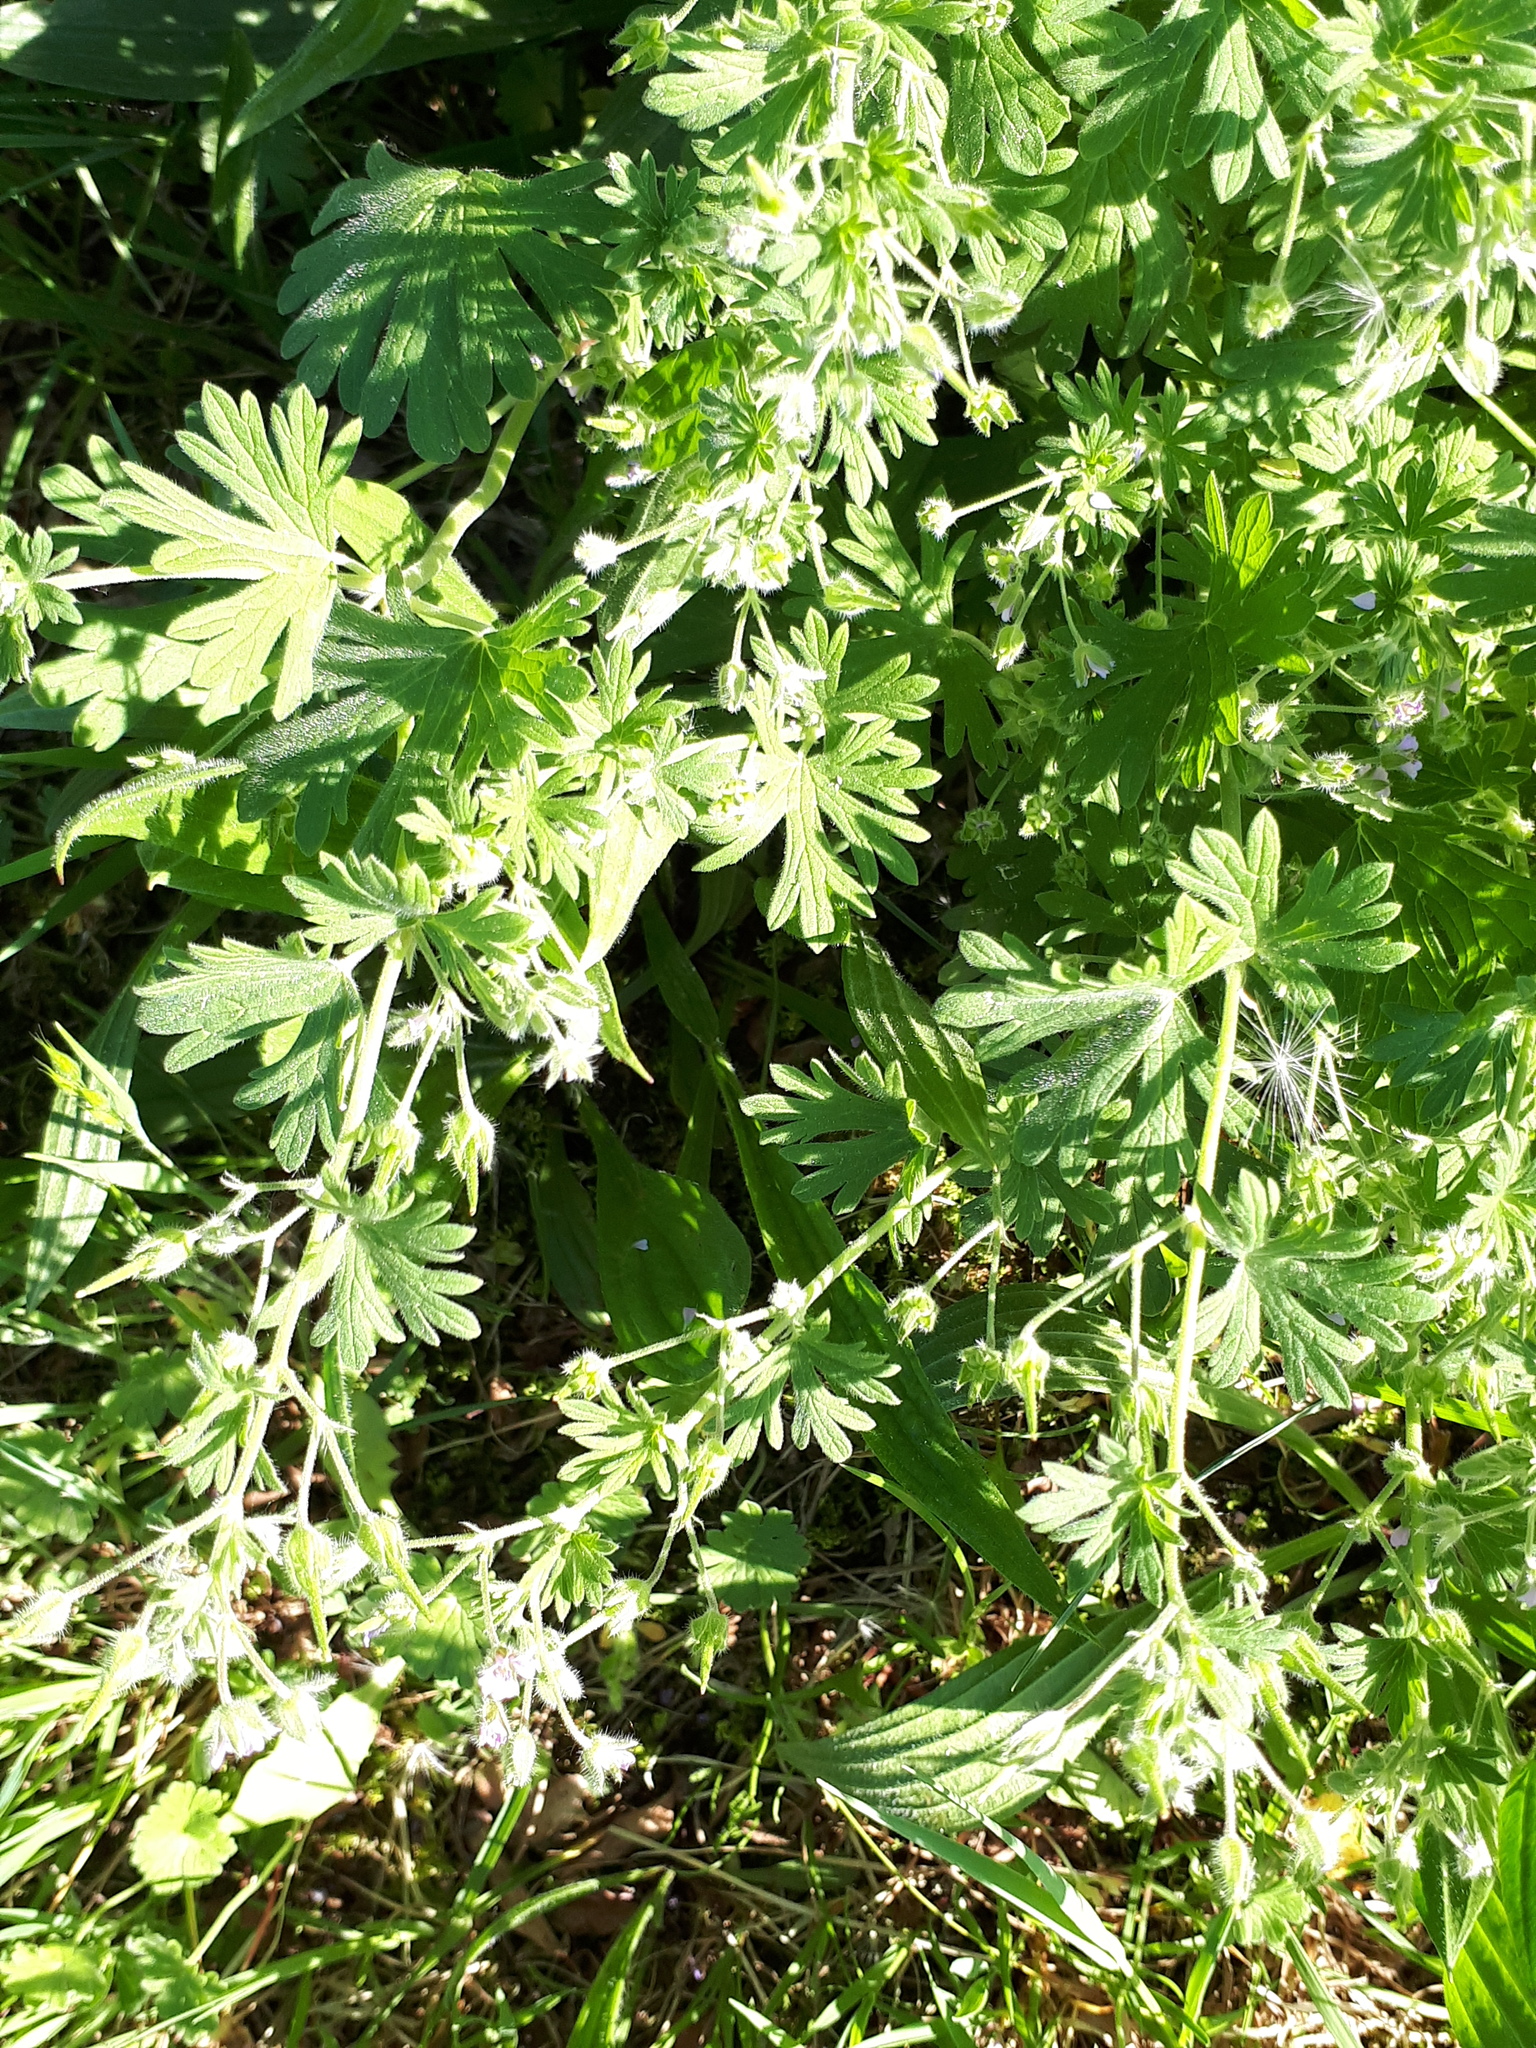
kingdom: Plantae
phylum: Tracheophyta
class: Magnoliopsida
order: Geraniales
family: Geraniaceae
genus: Geranium
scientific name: Geranium pusillum
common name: Small geranium
